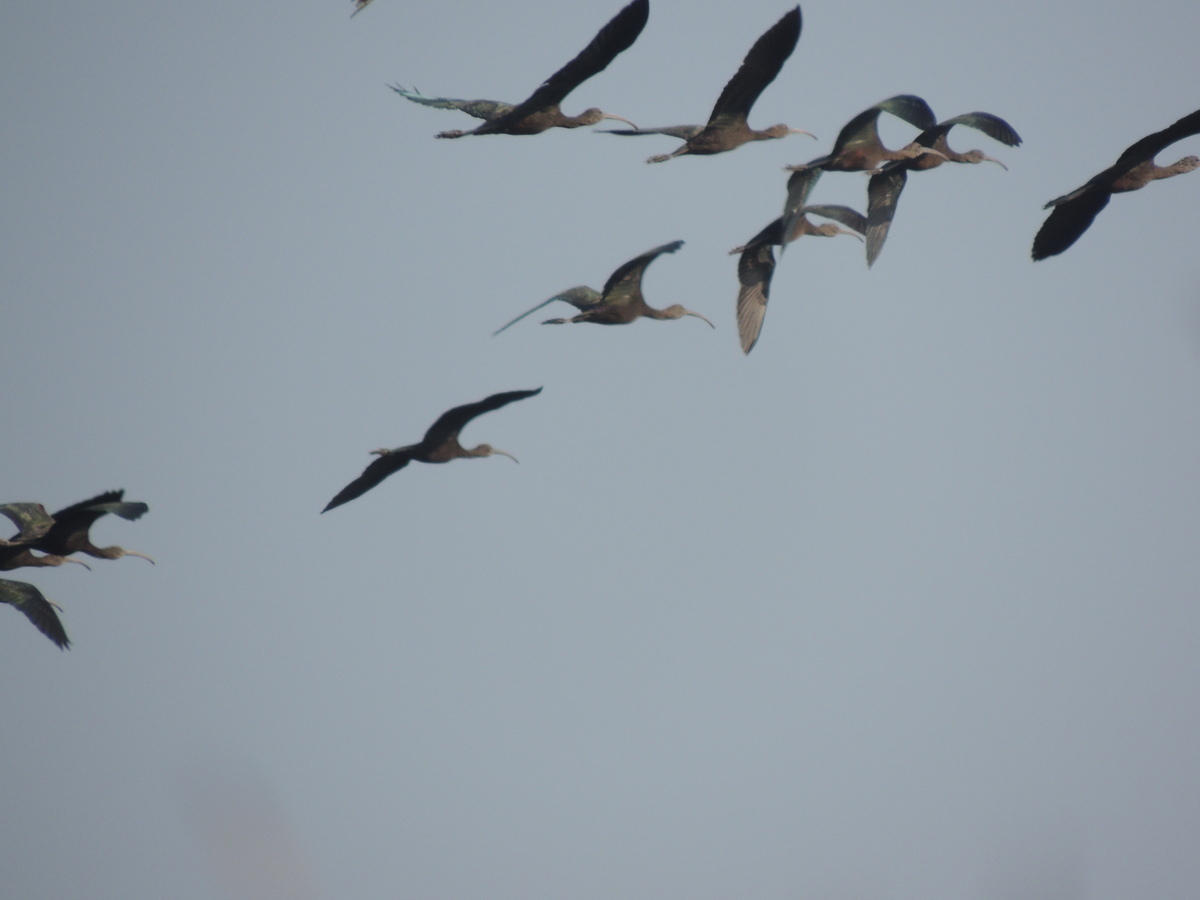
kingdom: Animalia
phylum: Chordata
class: Aves
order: Pelecaniformes
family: Threskiornithidae
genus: Plegadis
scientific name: Plegadis falcinellus
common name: Glossy ibis
